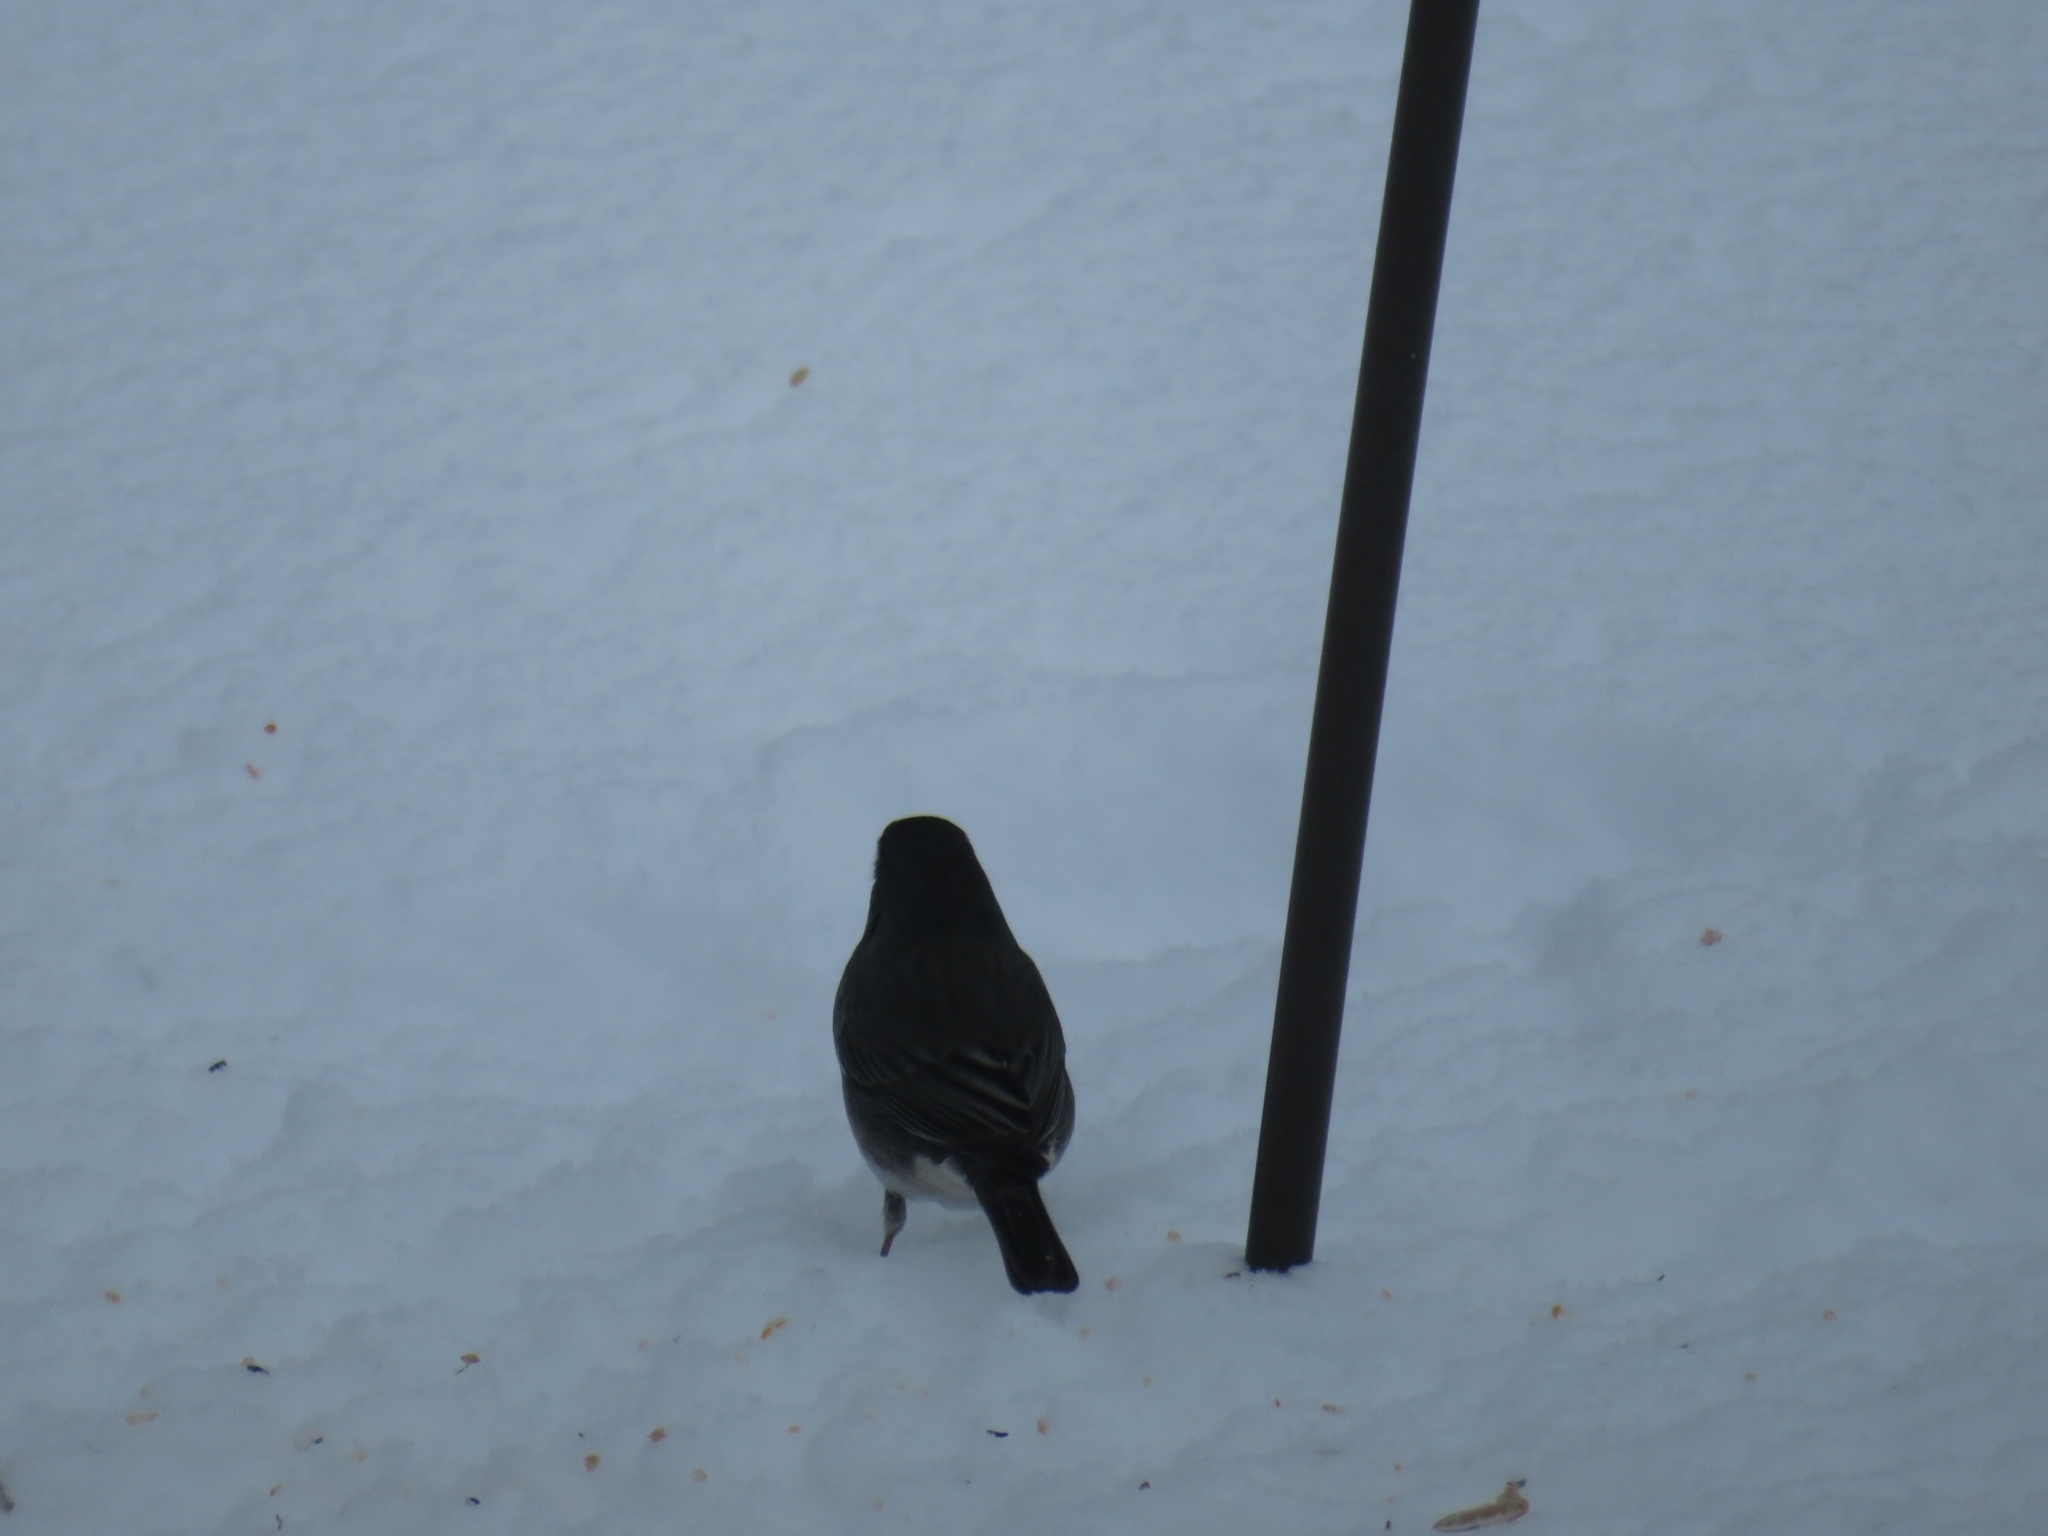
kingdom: Animalia
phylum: Chordata
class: Aves
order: Passeriformes
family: Passerellidae
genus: Junco
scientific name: Junco hyemalis
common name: Dark-eyed junco
